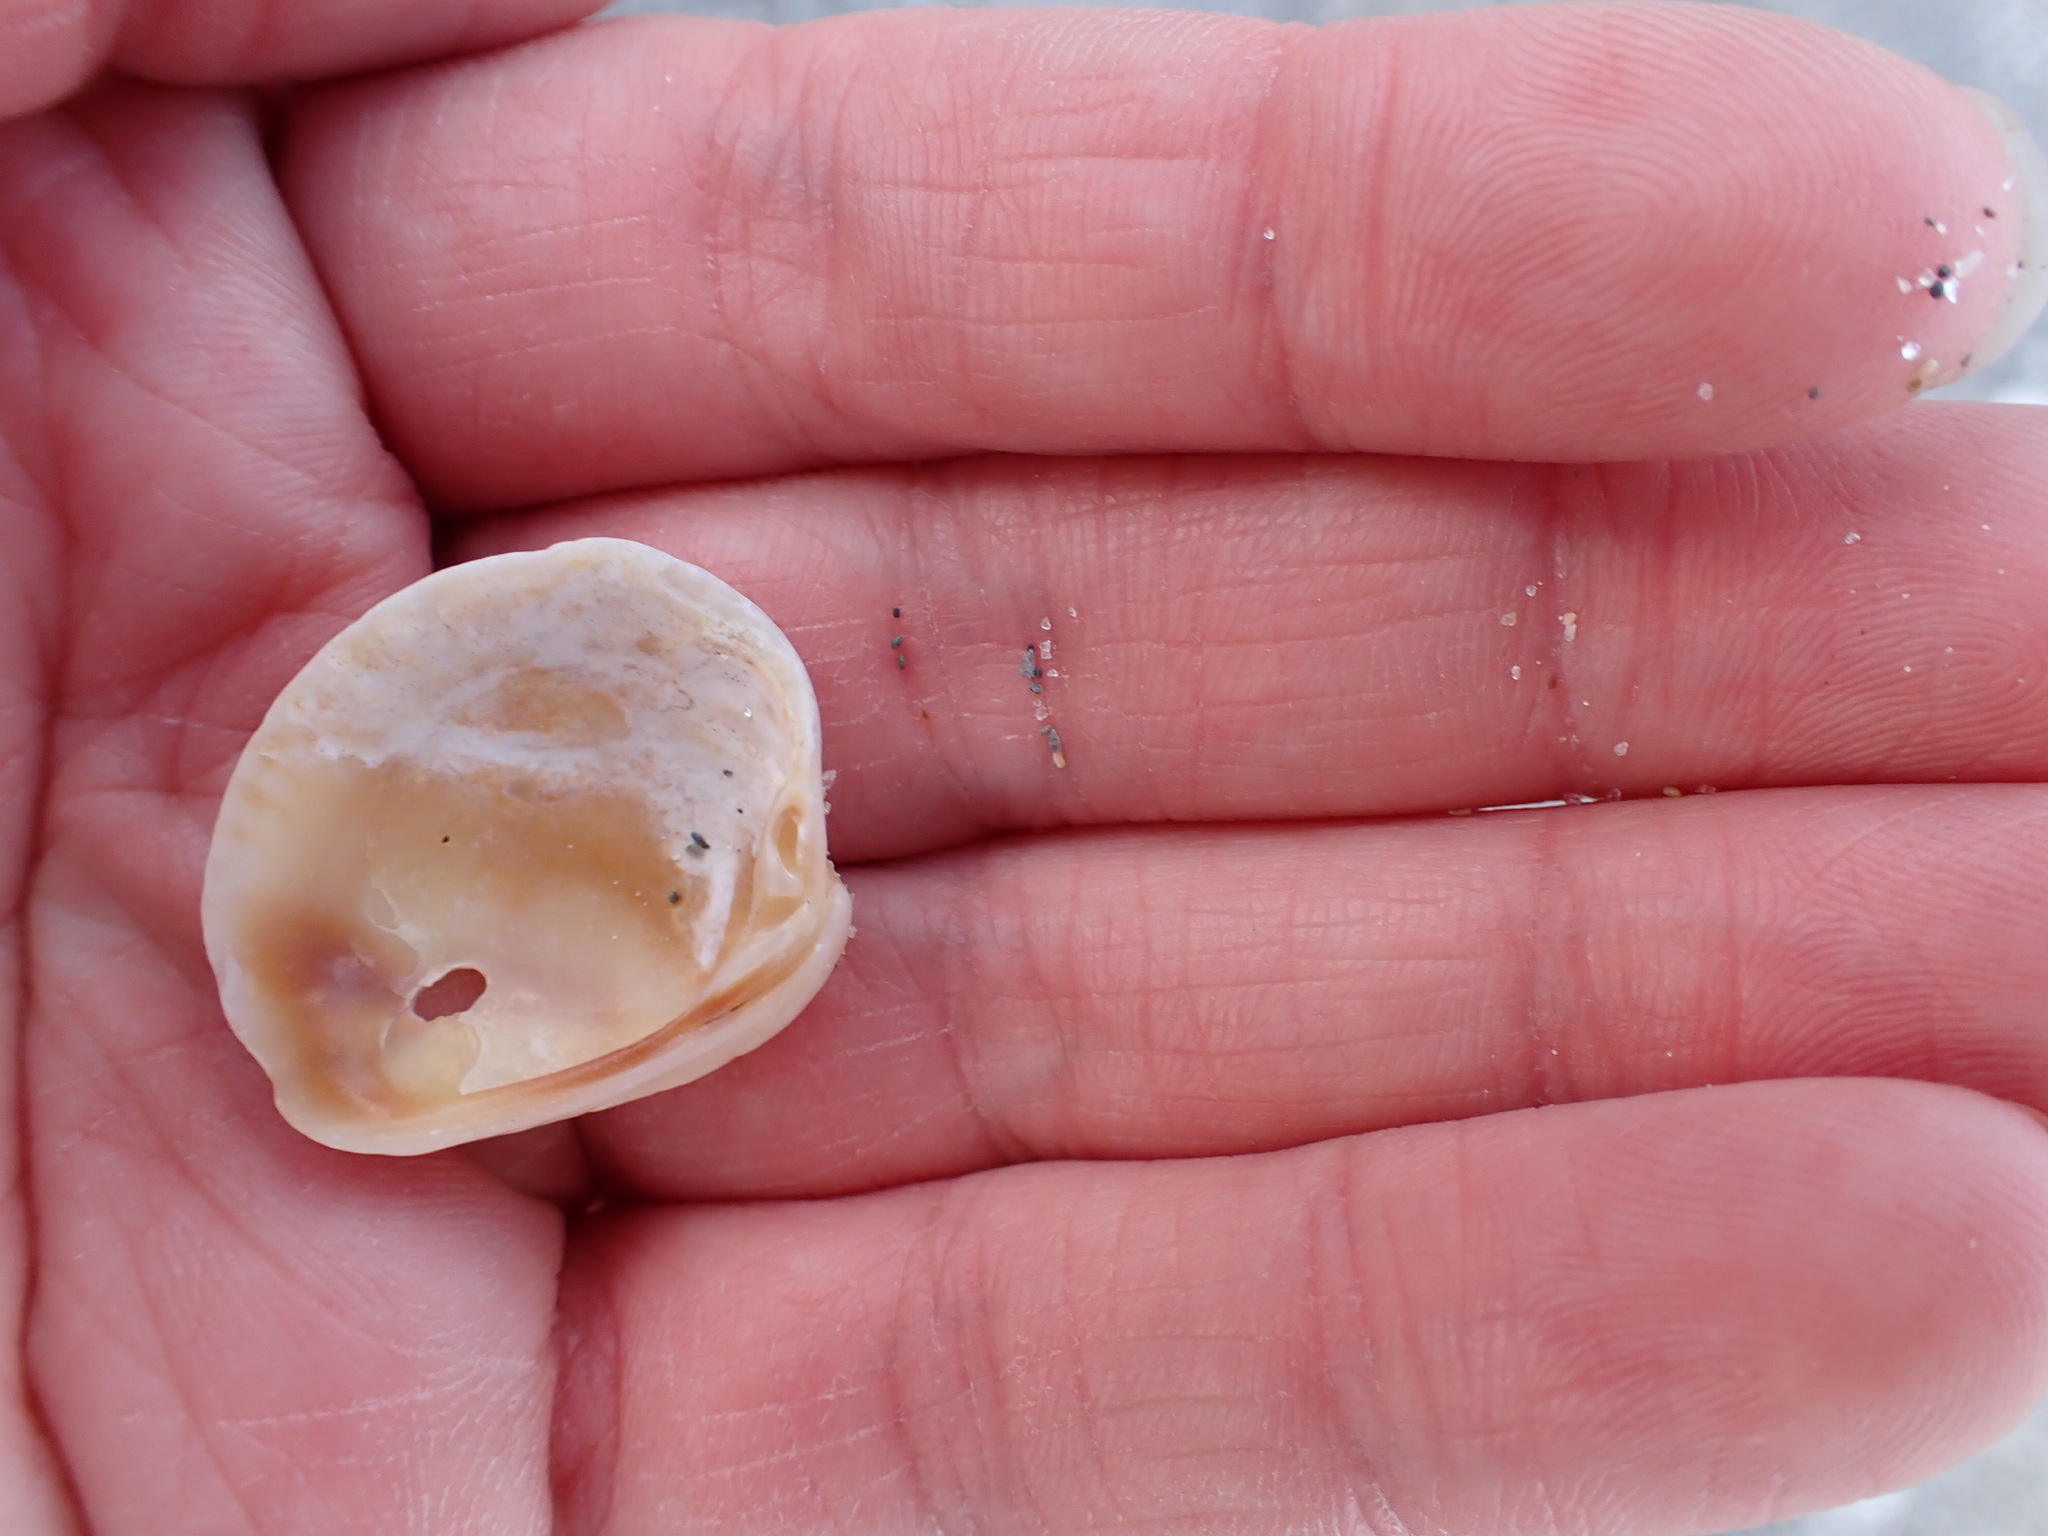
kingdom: Animalia
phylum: Mollusca
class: Bivalvia
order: Venerida
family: Veneridae
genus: Chione
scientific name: Chione elevata
